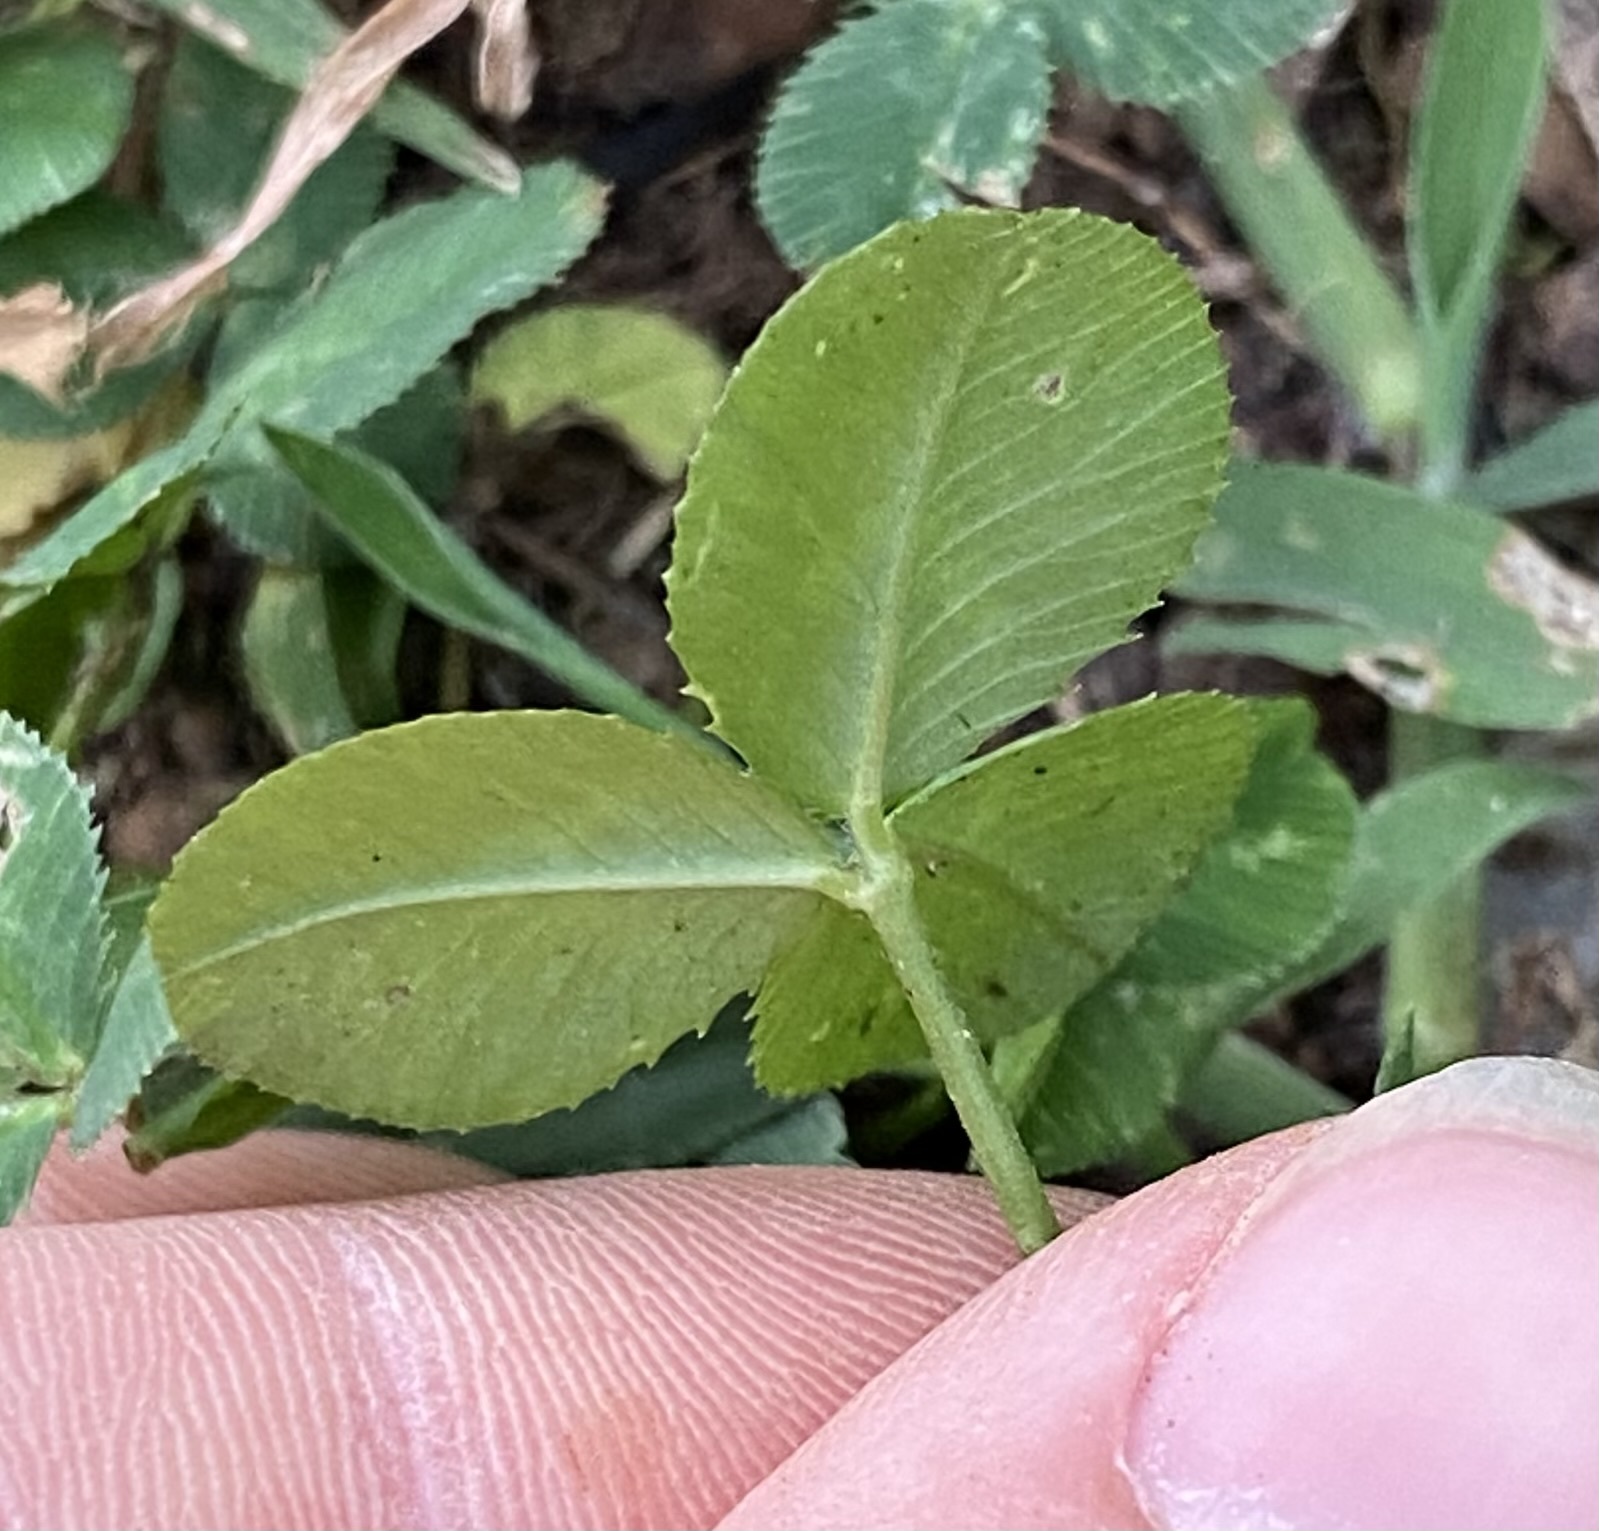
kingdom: Plantae
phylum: Tracheophyta
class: Magnoliopsida
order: Fabales
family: Fabaceae
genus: Trifolium
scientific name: Trifolium repens
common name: White clover
